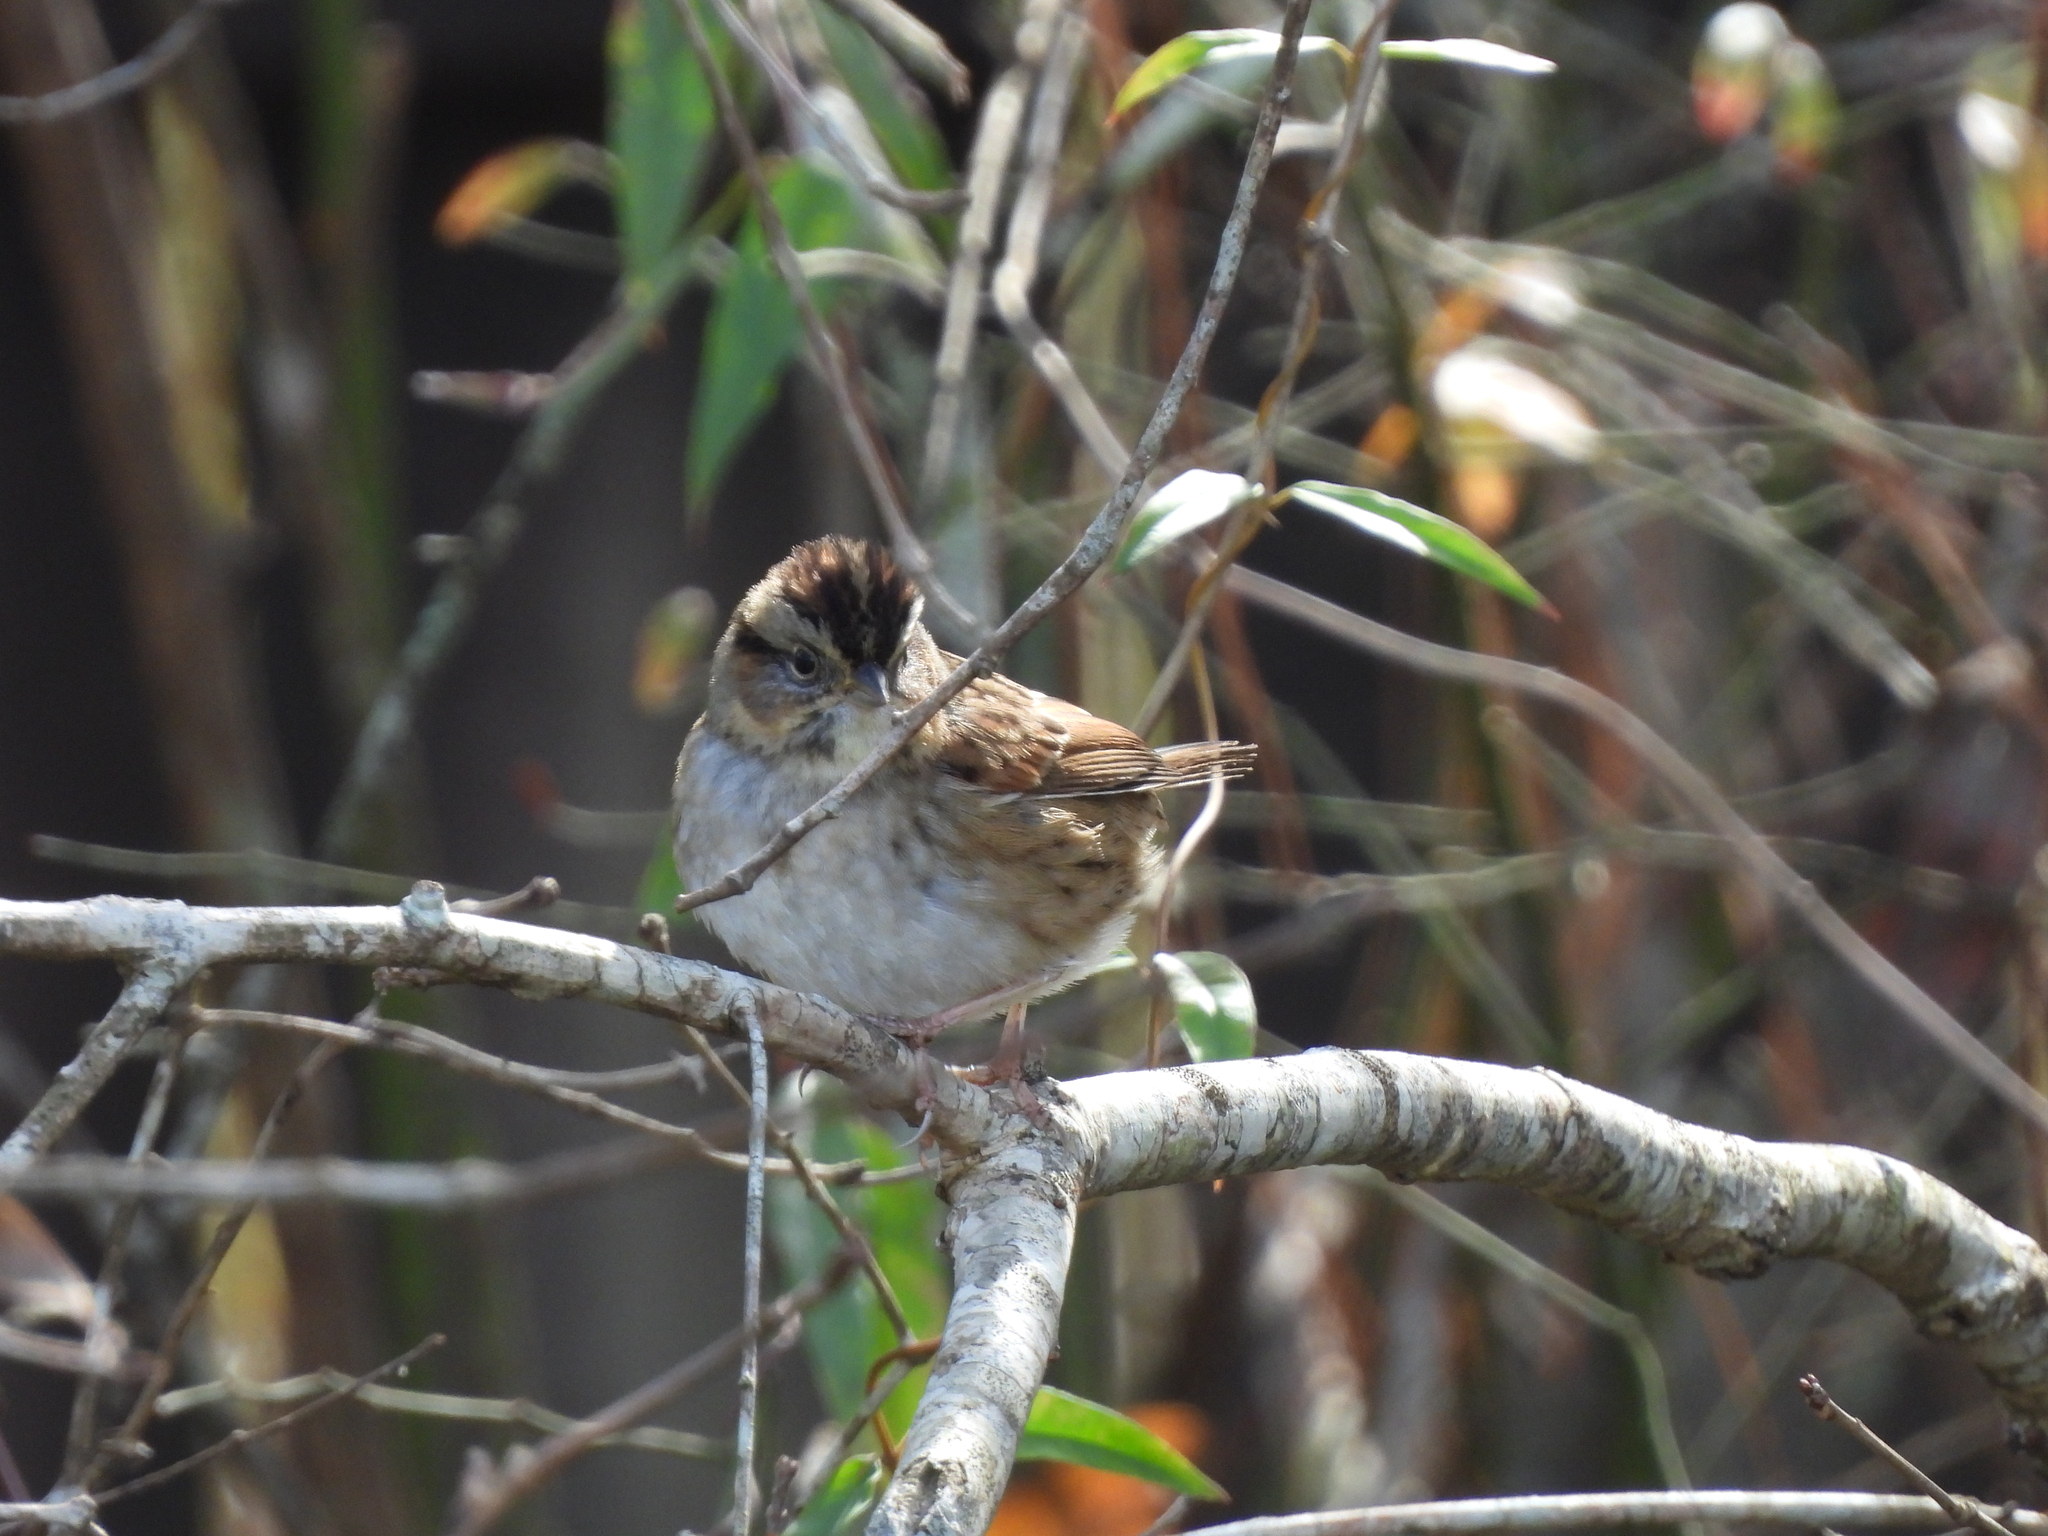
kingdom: Animalia
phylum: Chordata
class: Aves
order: Passeriformes
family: Passerellidae
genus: Melospiza
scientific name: Melospiza georgiana
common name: Swamp sparrow
